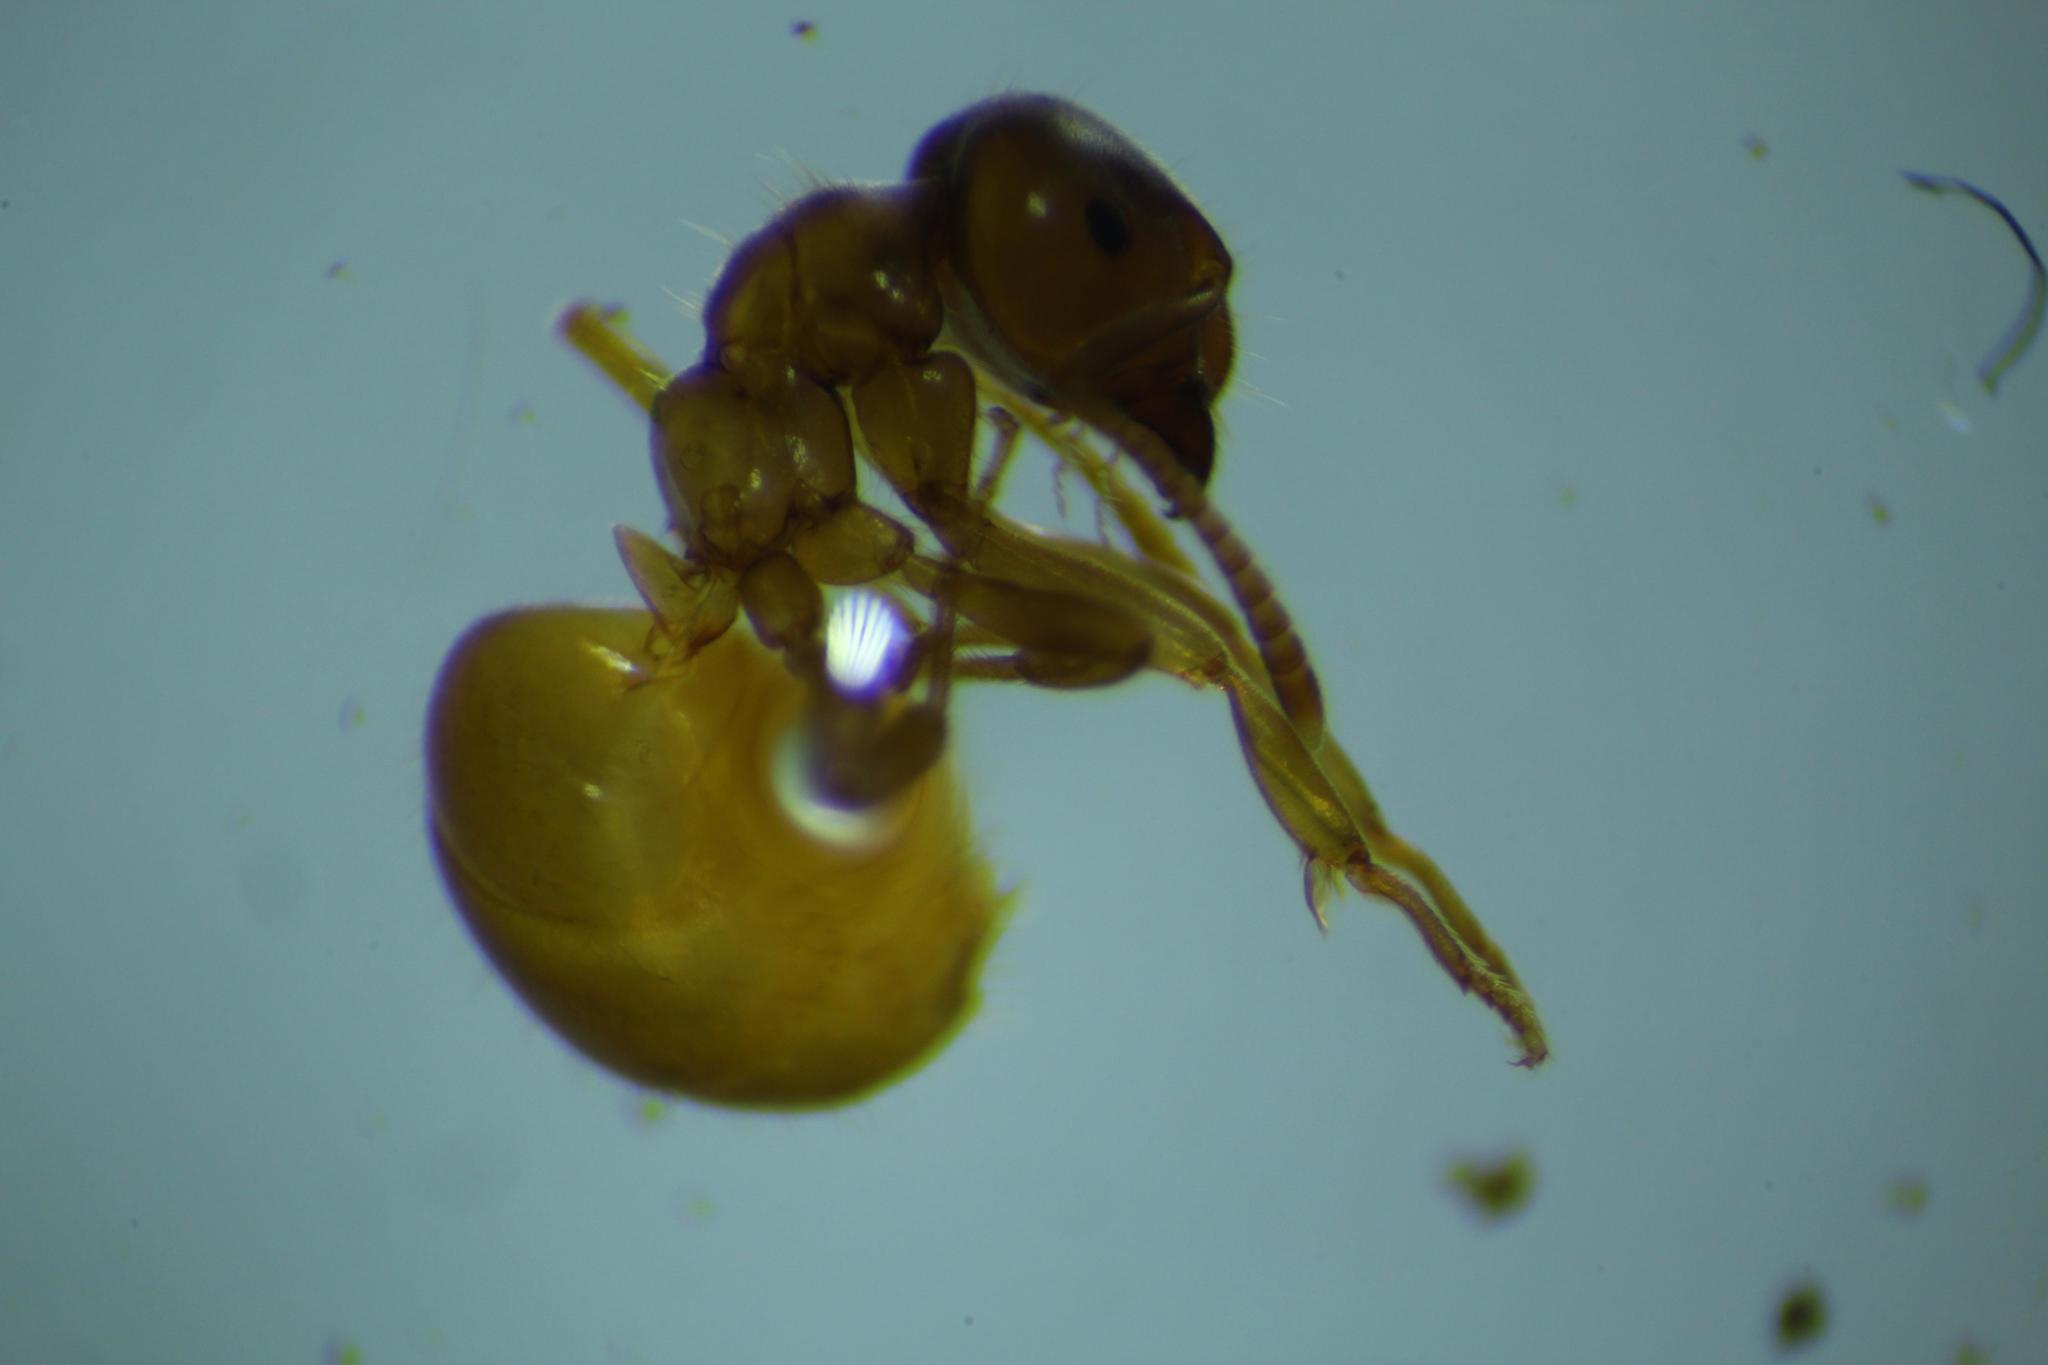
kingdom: Animalia
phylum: Arthropoda
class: Insecta
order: Hymenoptera
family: Formicidae
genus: Lasius
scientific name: Lasius flavus
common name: Blond field ant
